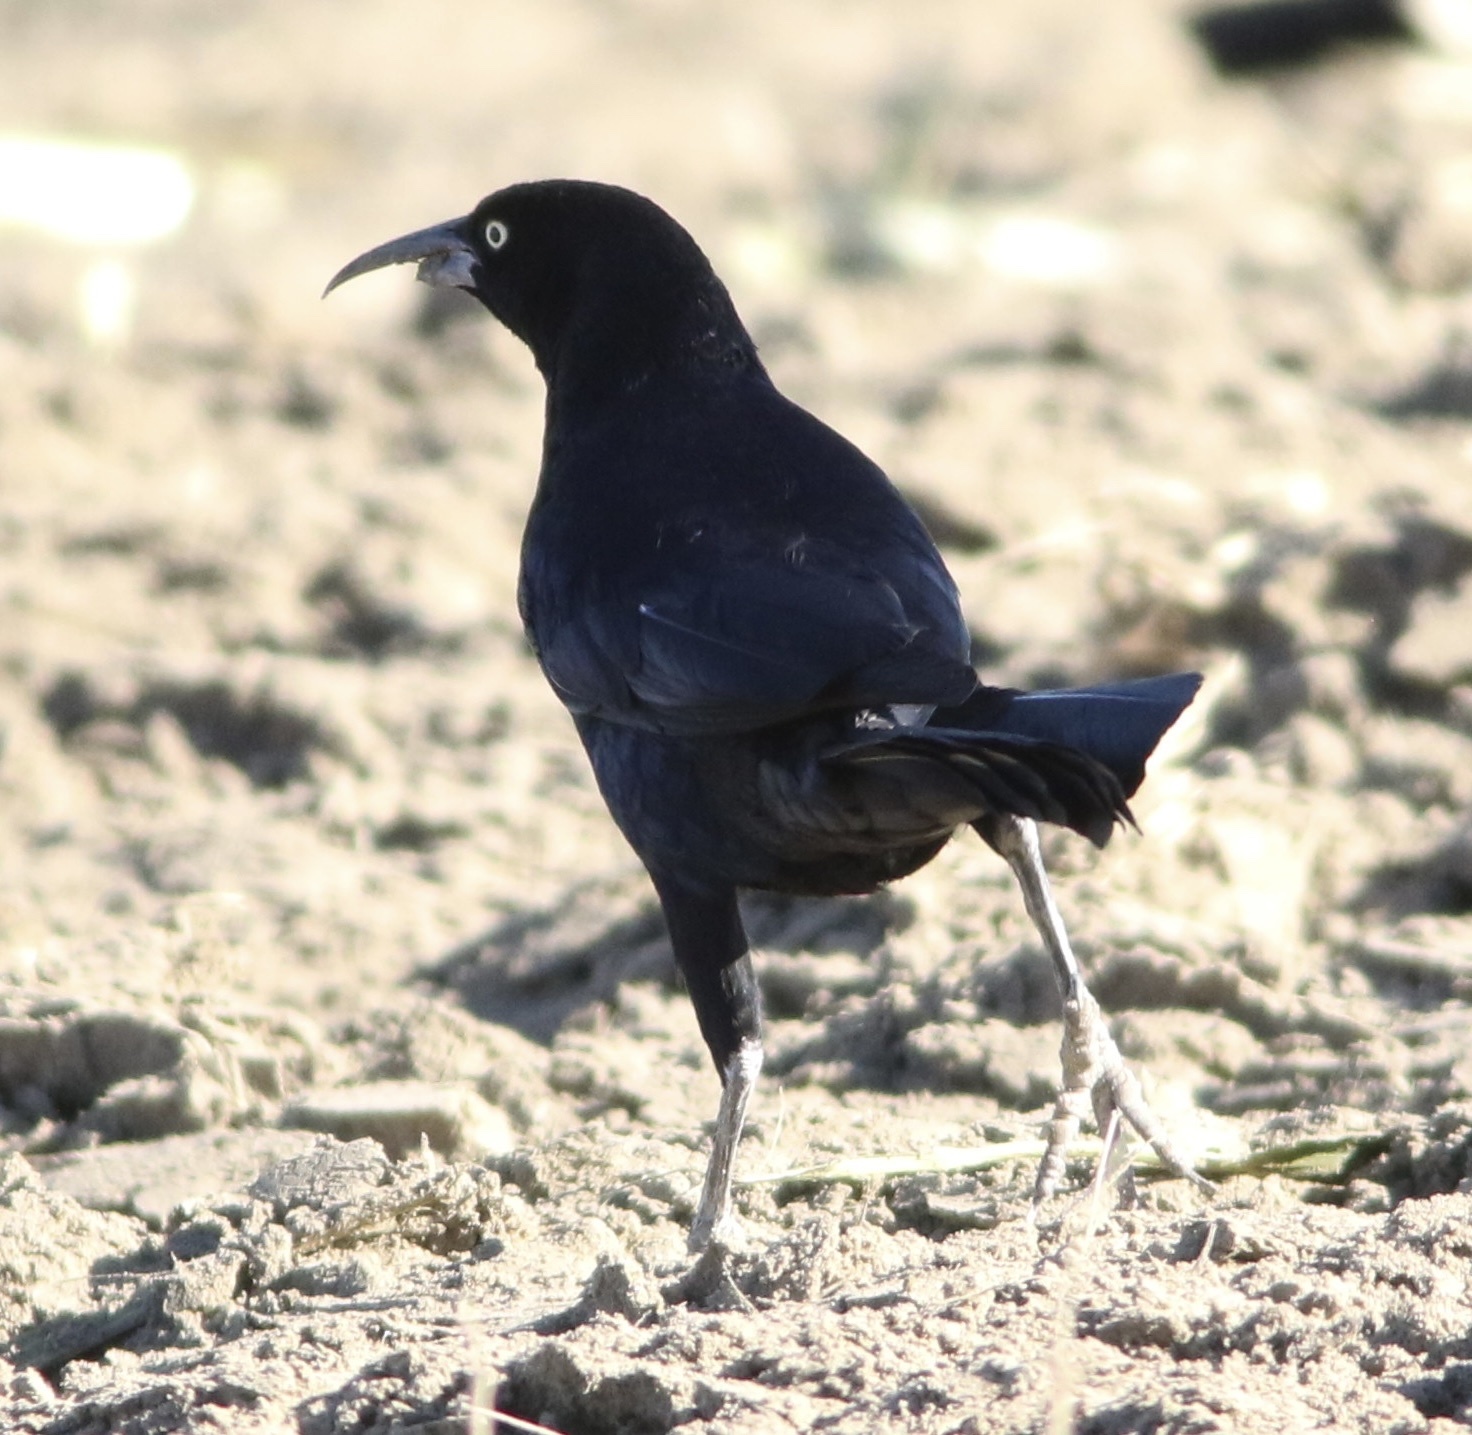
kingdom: Animalia
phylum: Chordata
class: Aves
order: Passeriformes
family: Icteridae
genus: Quiscalus
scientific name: Quiscalus mexicanus
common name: Great-tailed grackle
